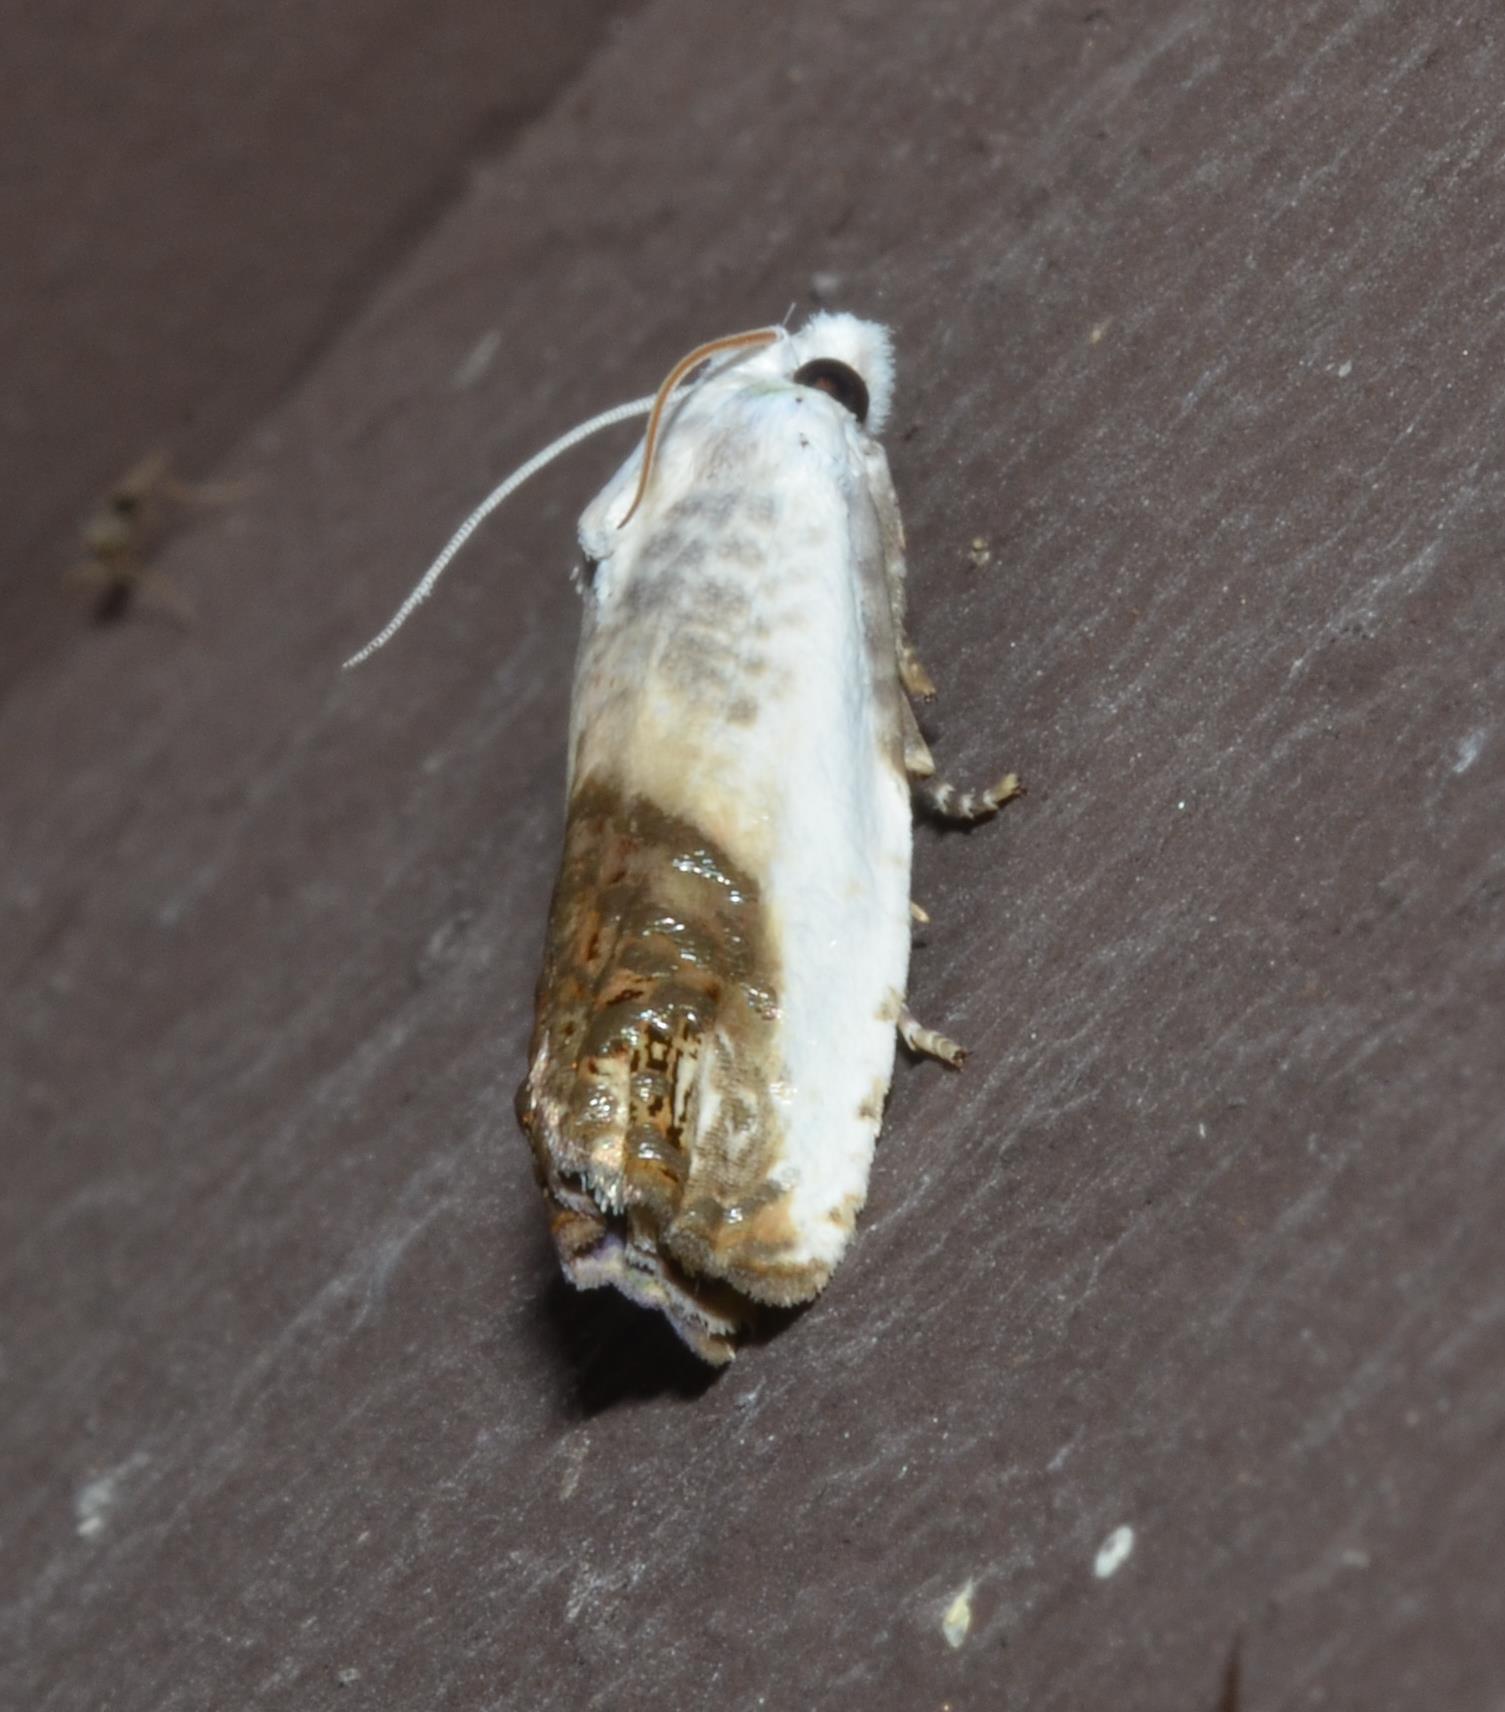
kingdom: Animalia
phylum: Arthropoda
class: Insecta
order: Lepidoptera
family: Tortricidae
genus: Eucosma
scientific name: Eucosma giganteana
